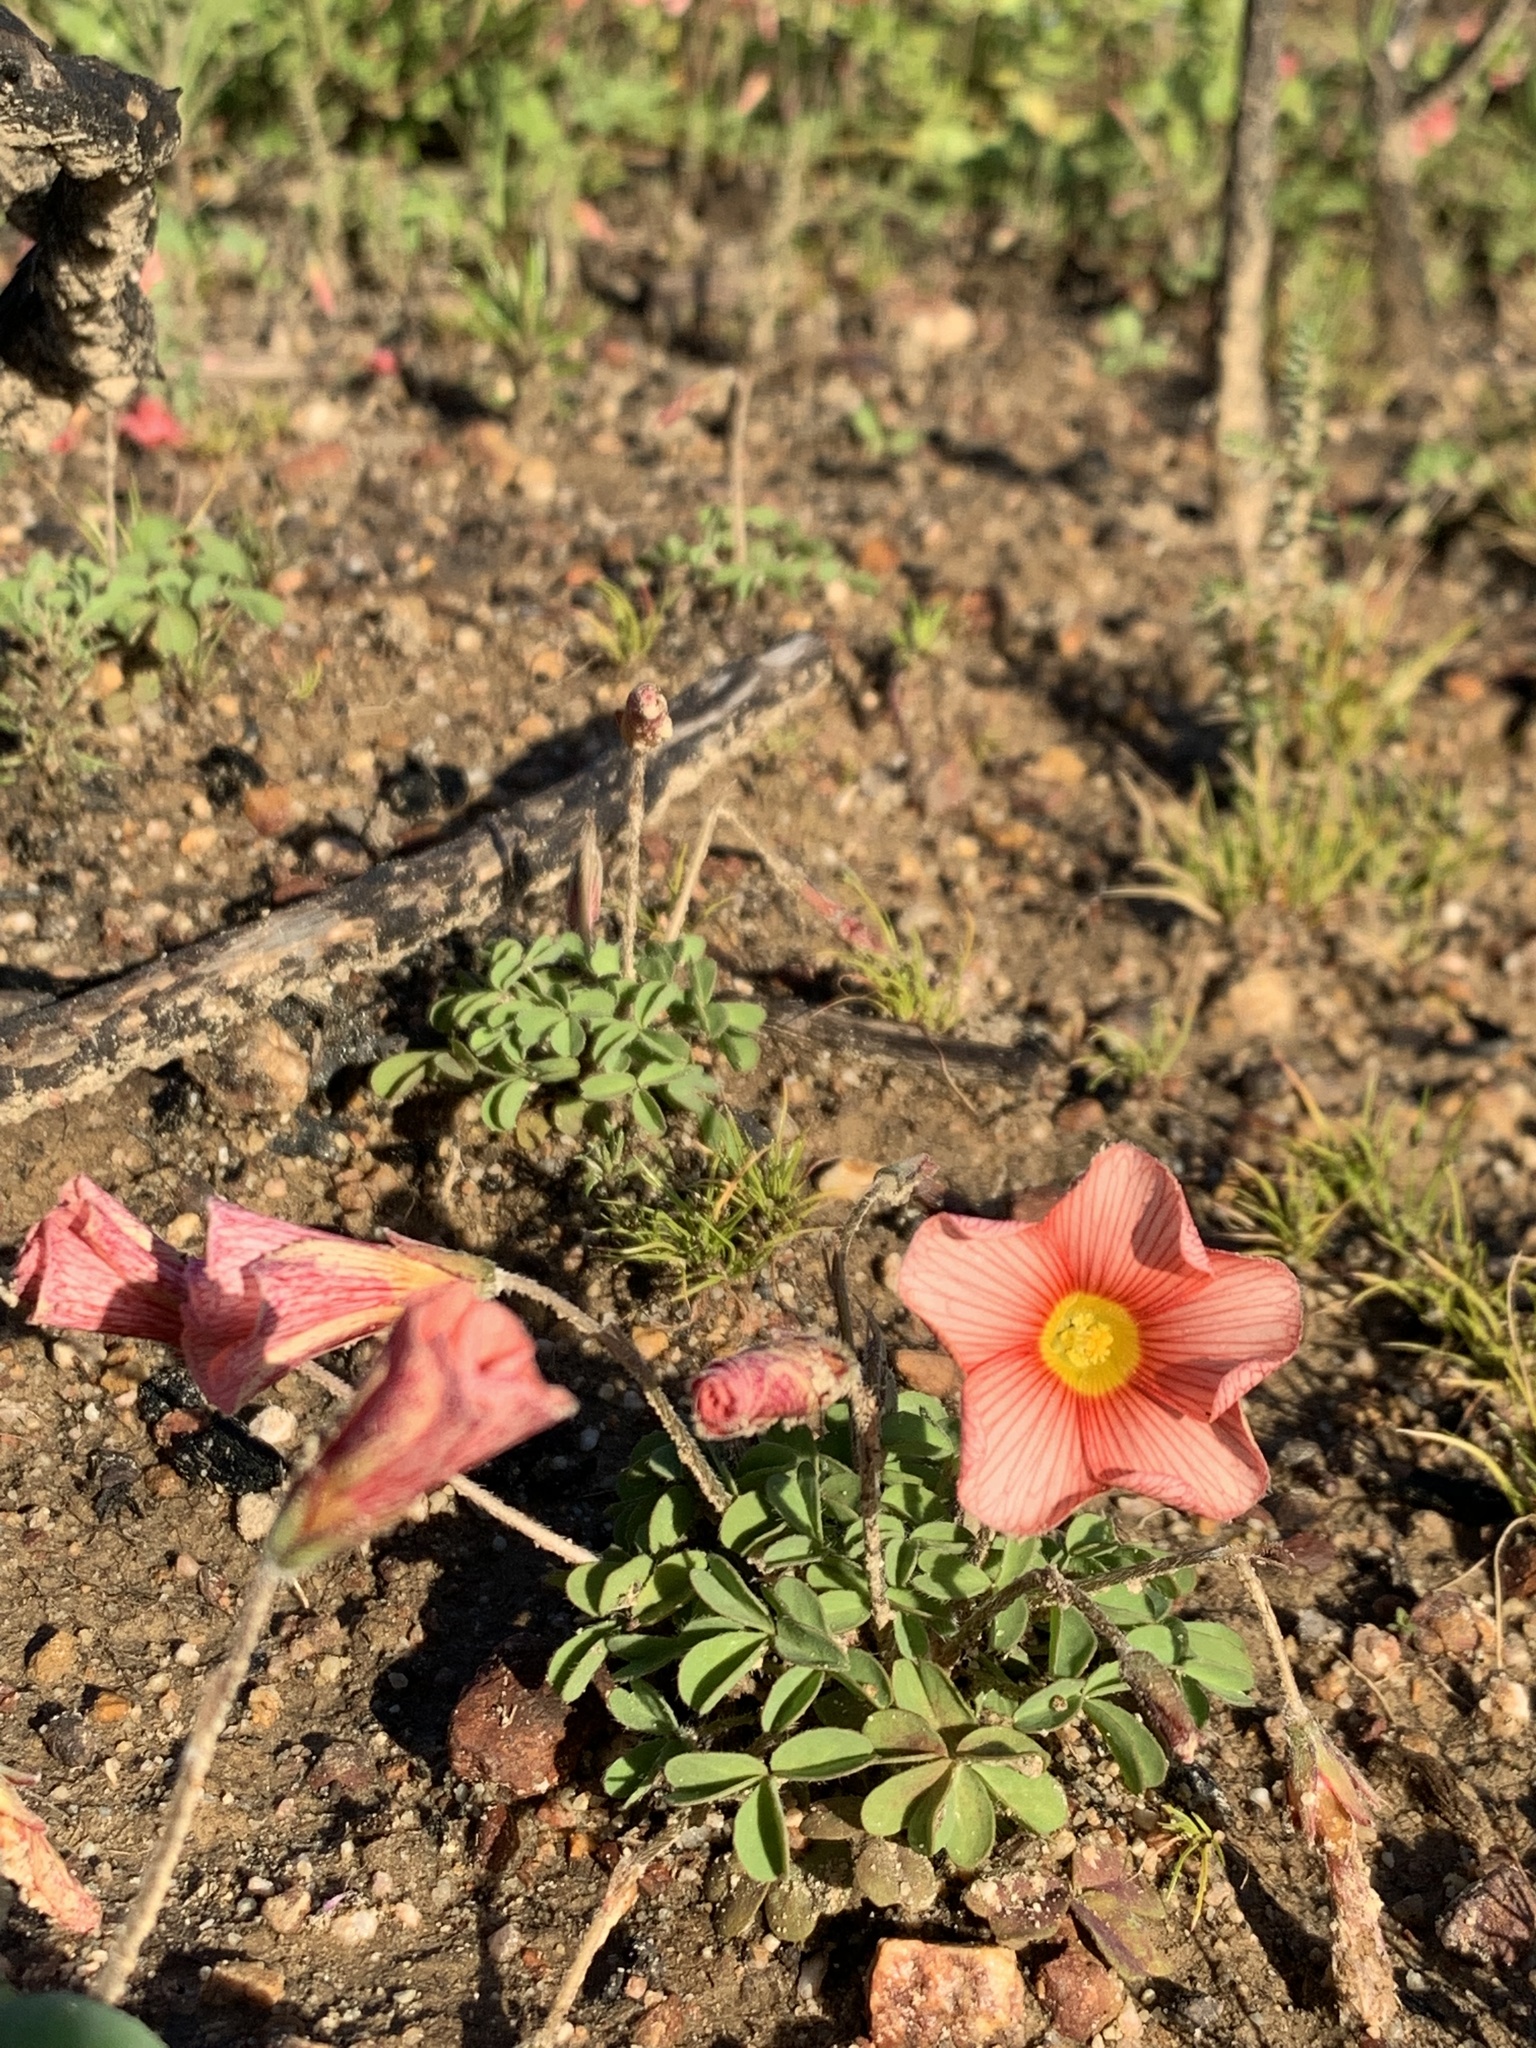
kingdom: Plantae
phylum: Tracheophyta
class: Magnoliopsida
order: Oxalidales
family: Oxalidaceae
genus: Oxalis
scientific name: Oxalis obtusa
